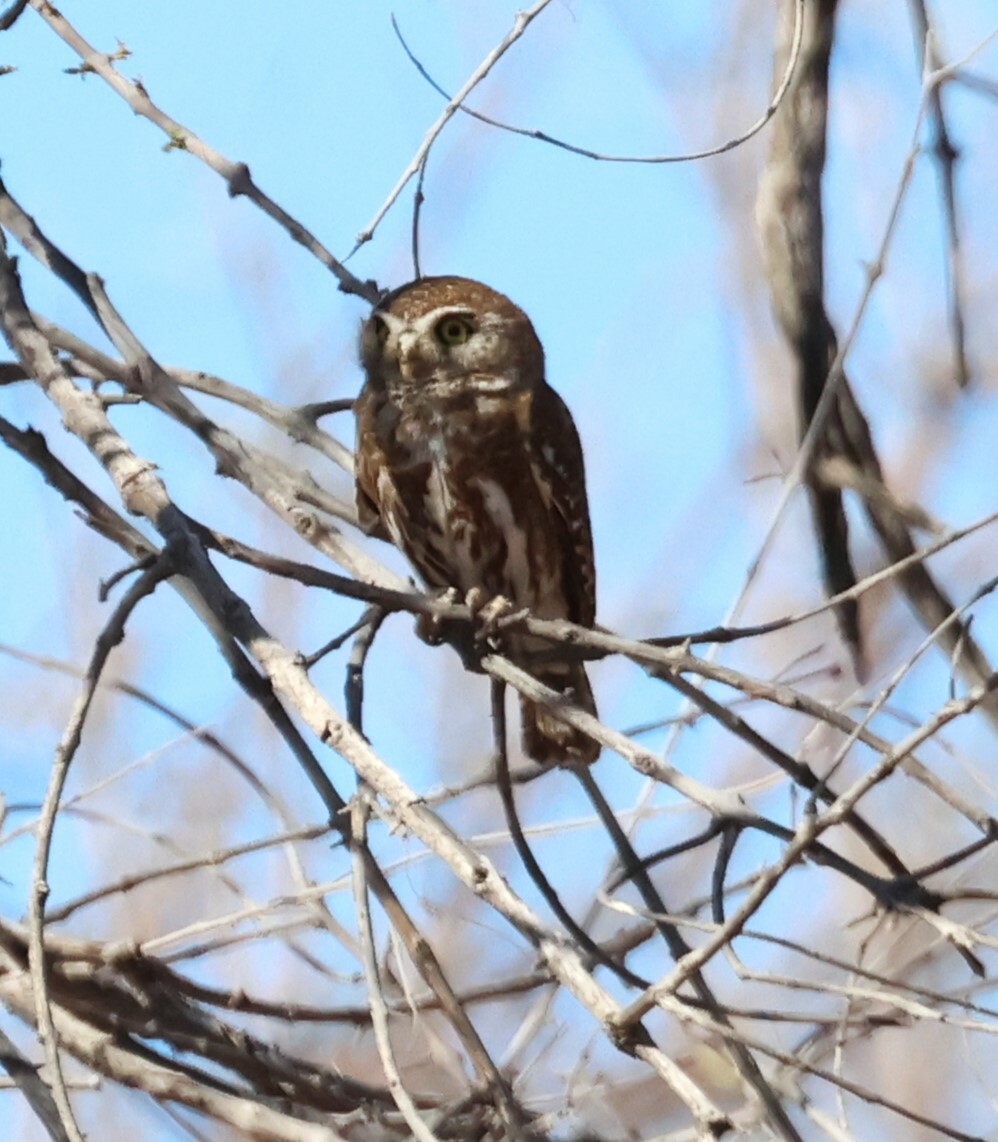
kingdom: Animalia
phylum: Chordata
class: Aves
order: Strigiformes
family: Strigidae
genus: Glaucidium
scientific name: Glaucidium perlatum
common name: Pearl-spotted owlet
